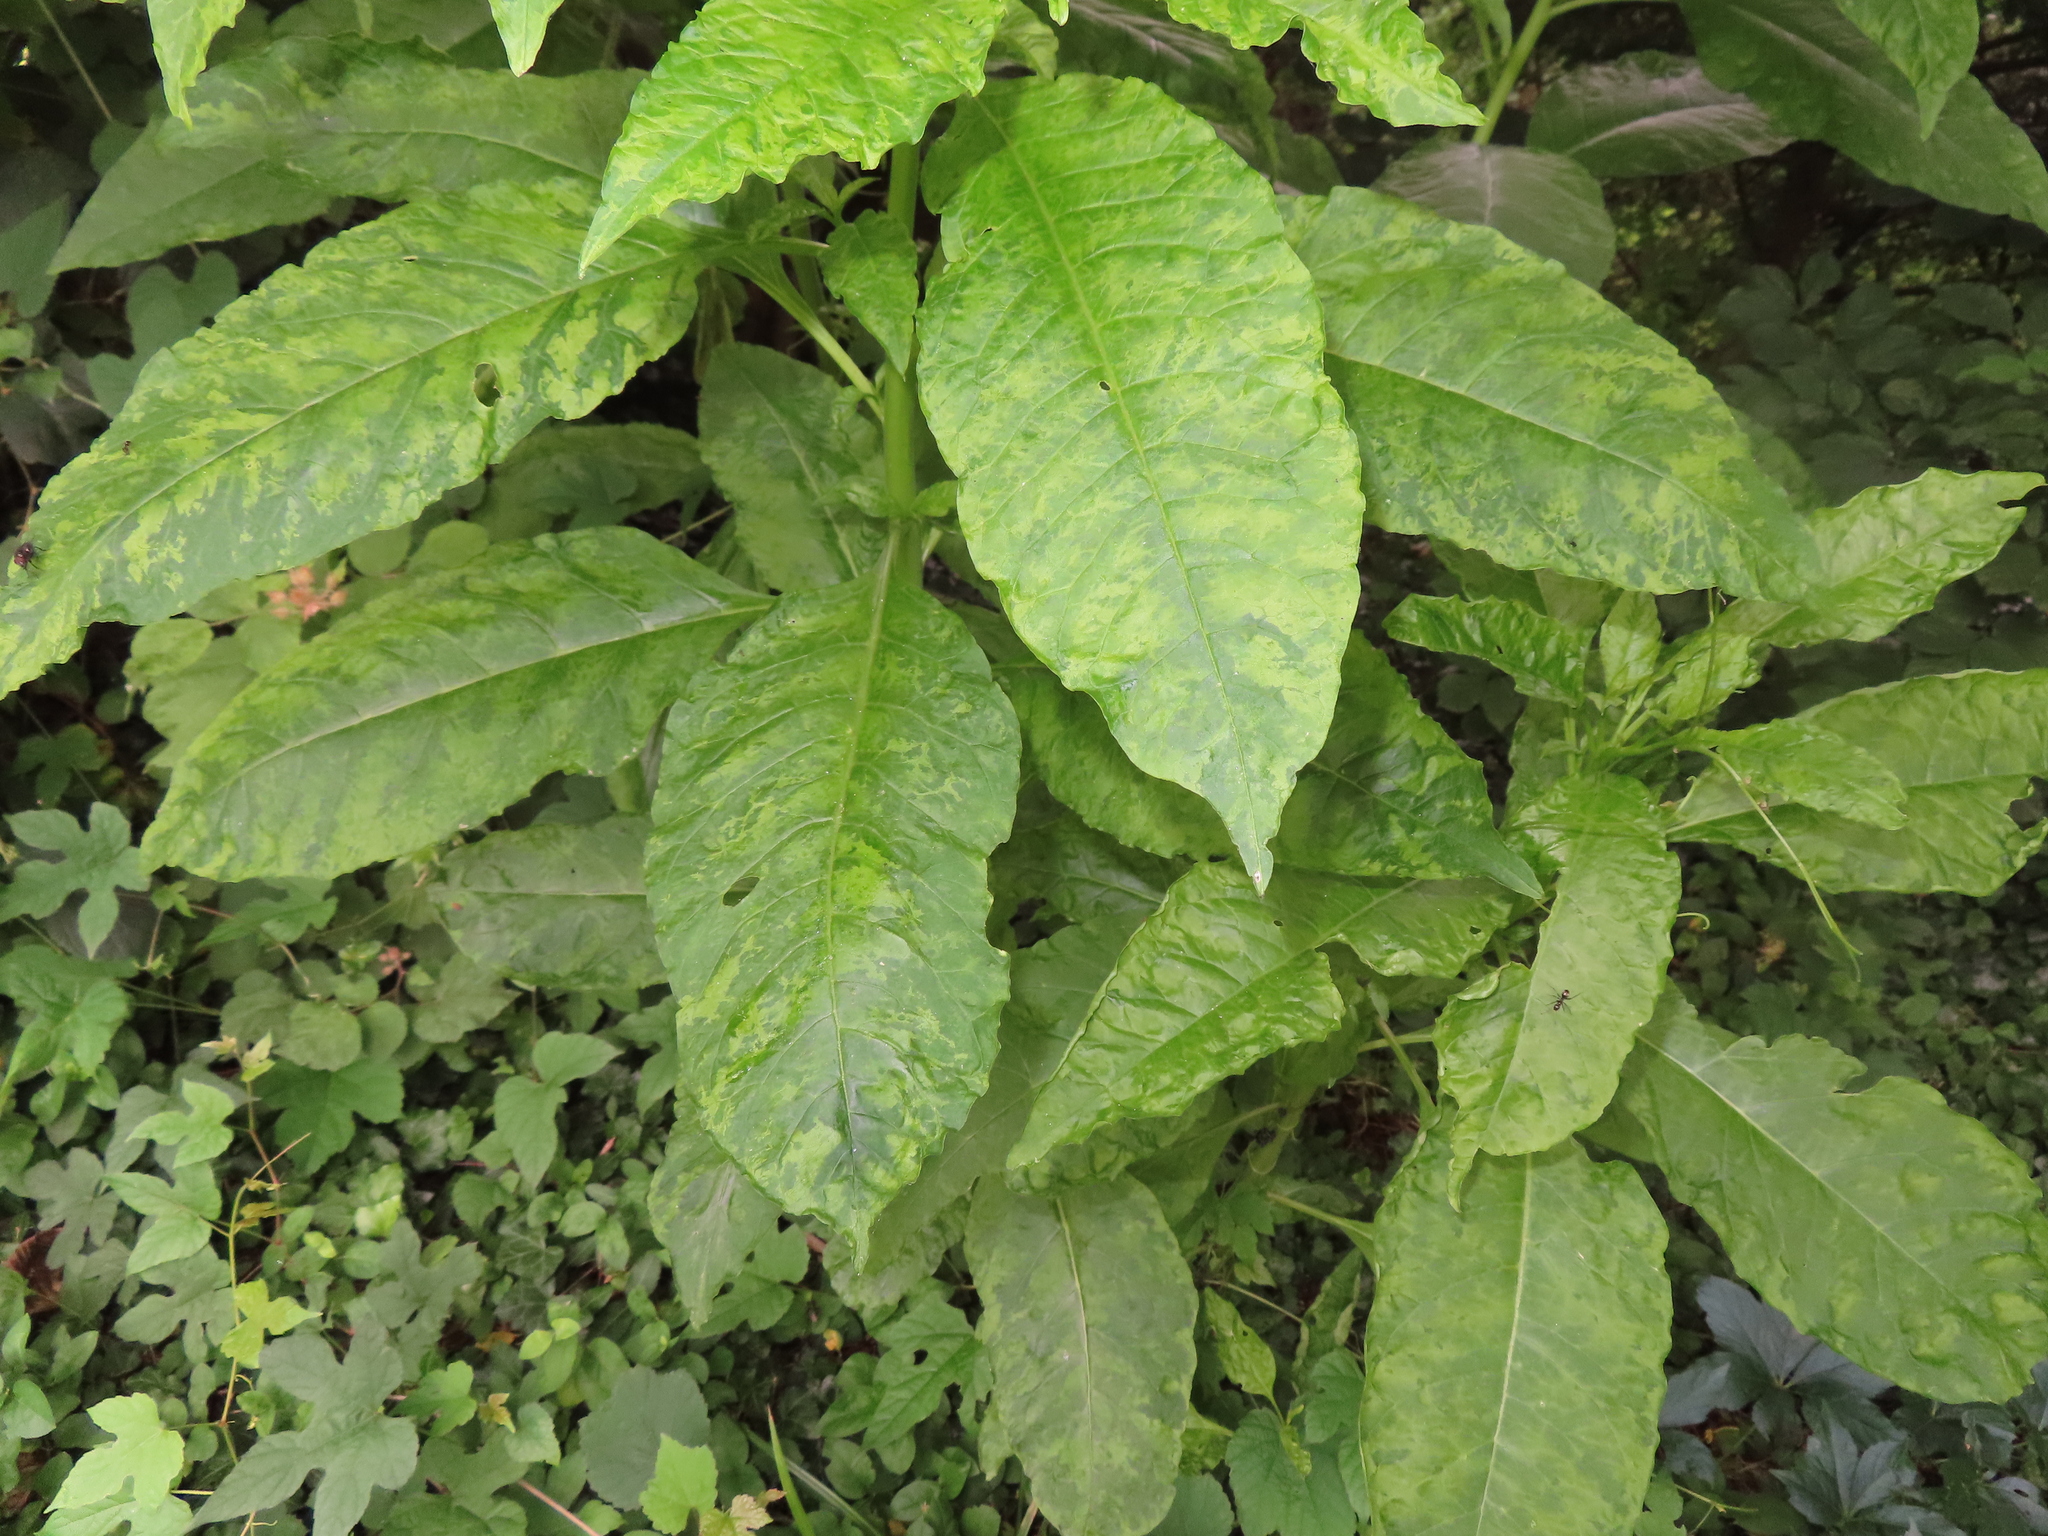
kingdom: Plantae
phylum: Tracheophyta
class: Magnoliopsida
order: Caryophyllales
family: Phytolaccaceae
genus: Phytolacca
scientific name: Phytolacca americana
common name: American pokeweed
